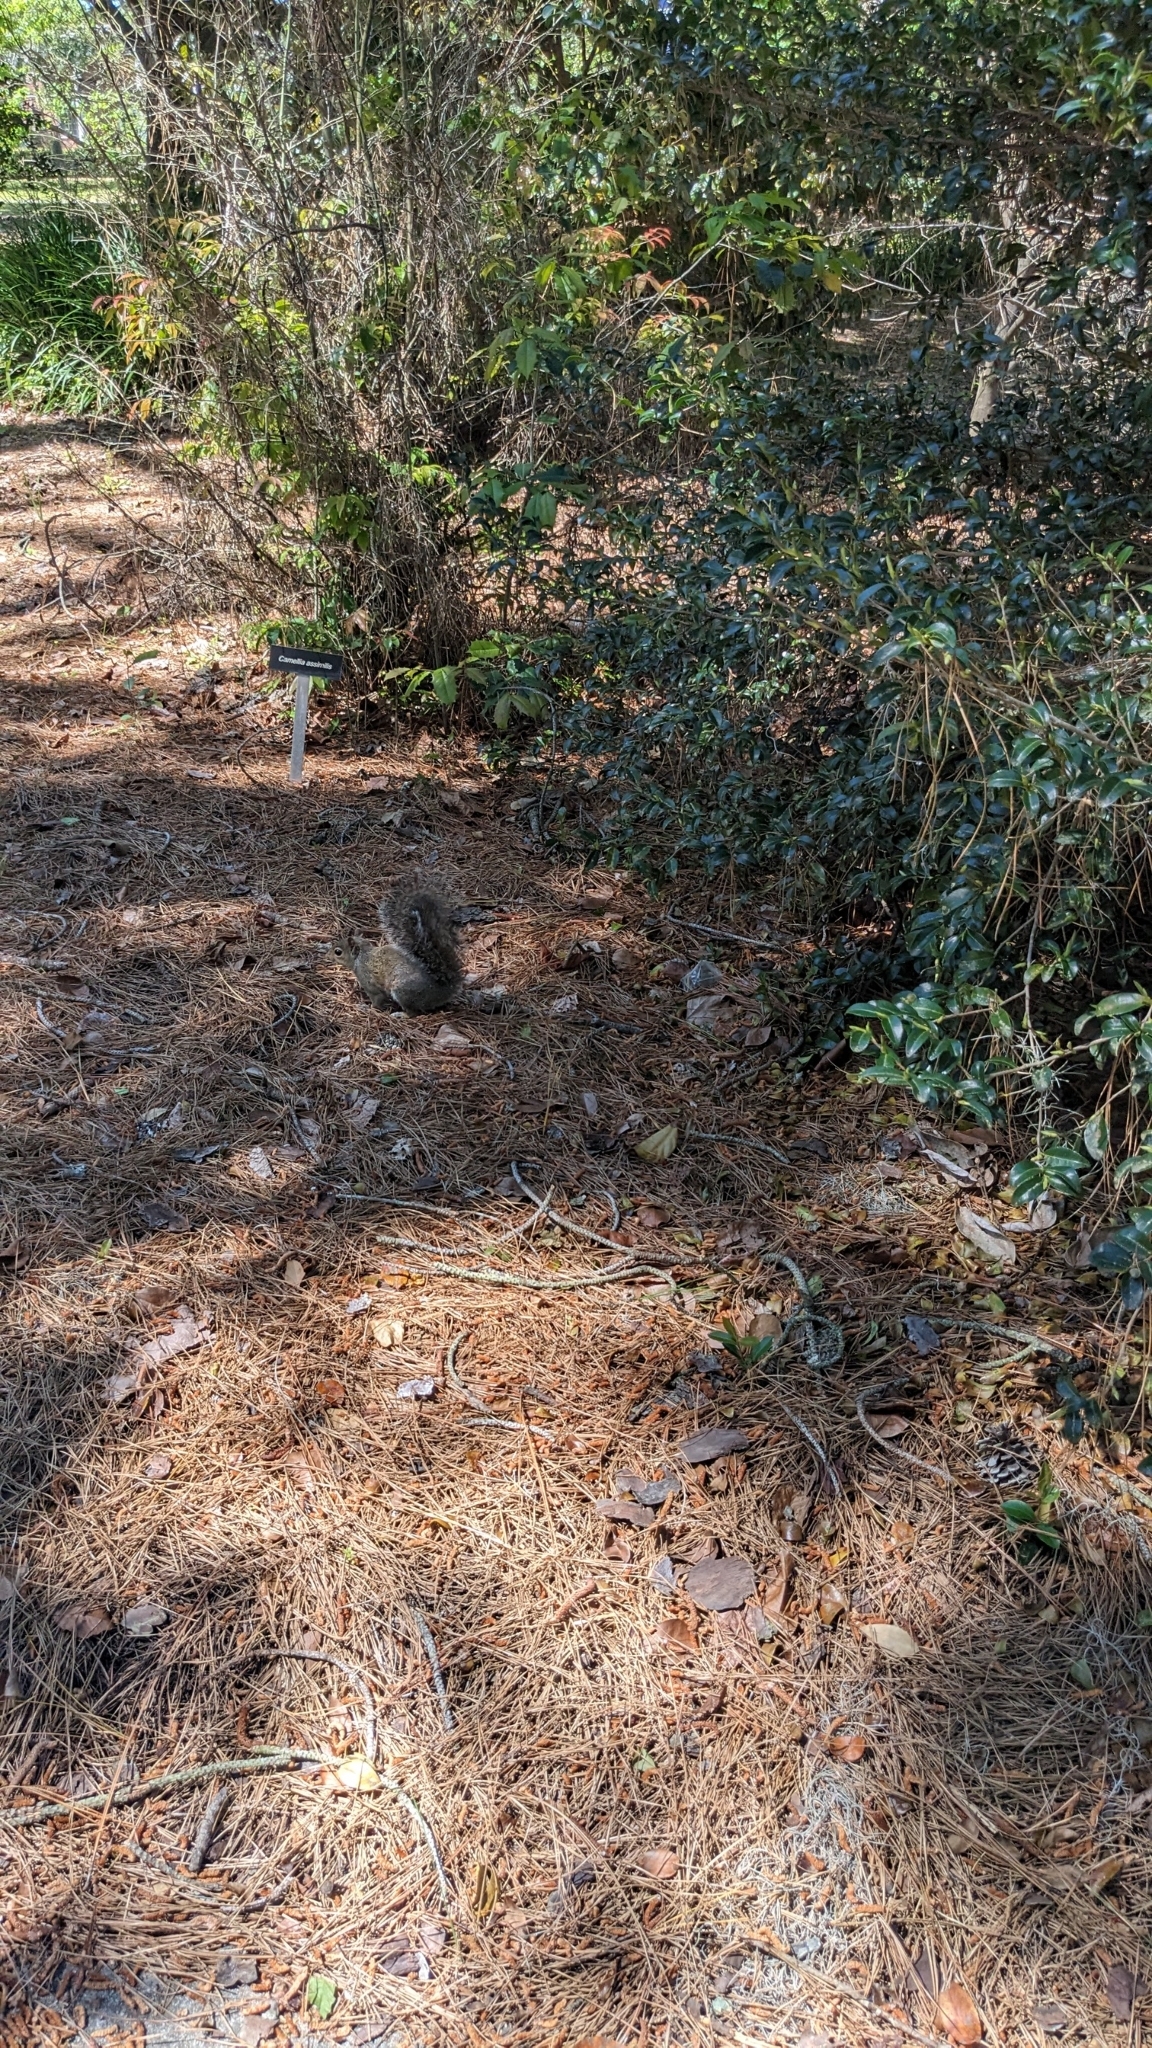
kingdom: Animalia
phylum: Chordata
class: Mammalia
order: Rodentia
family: Sciuridae
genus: Sciurus
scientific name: Sciurus carolinensis
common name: Eastern gray squirrel
